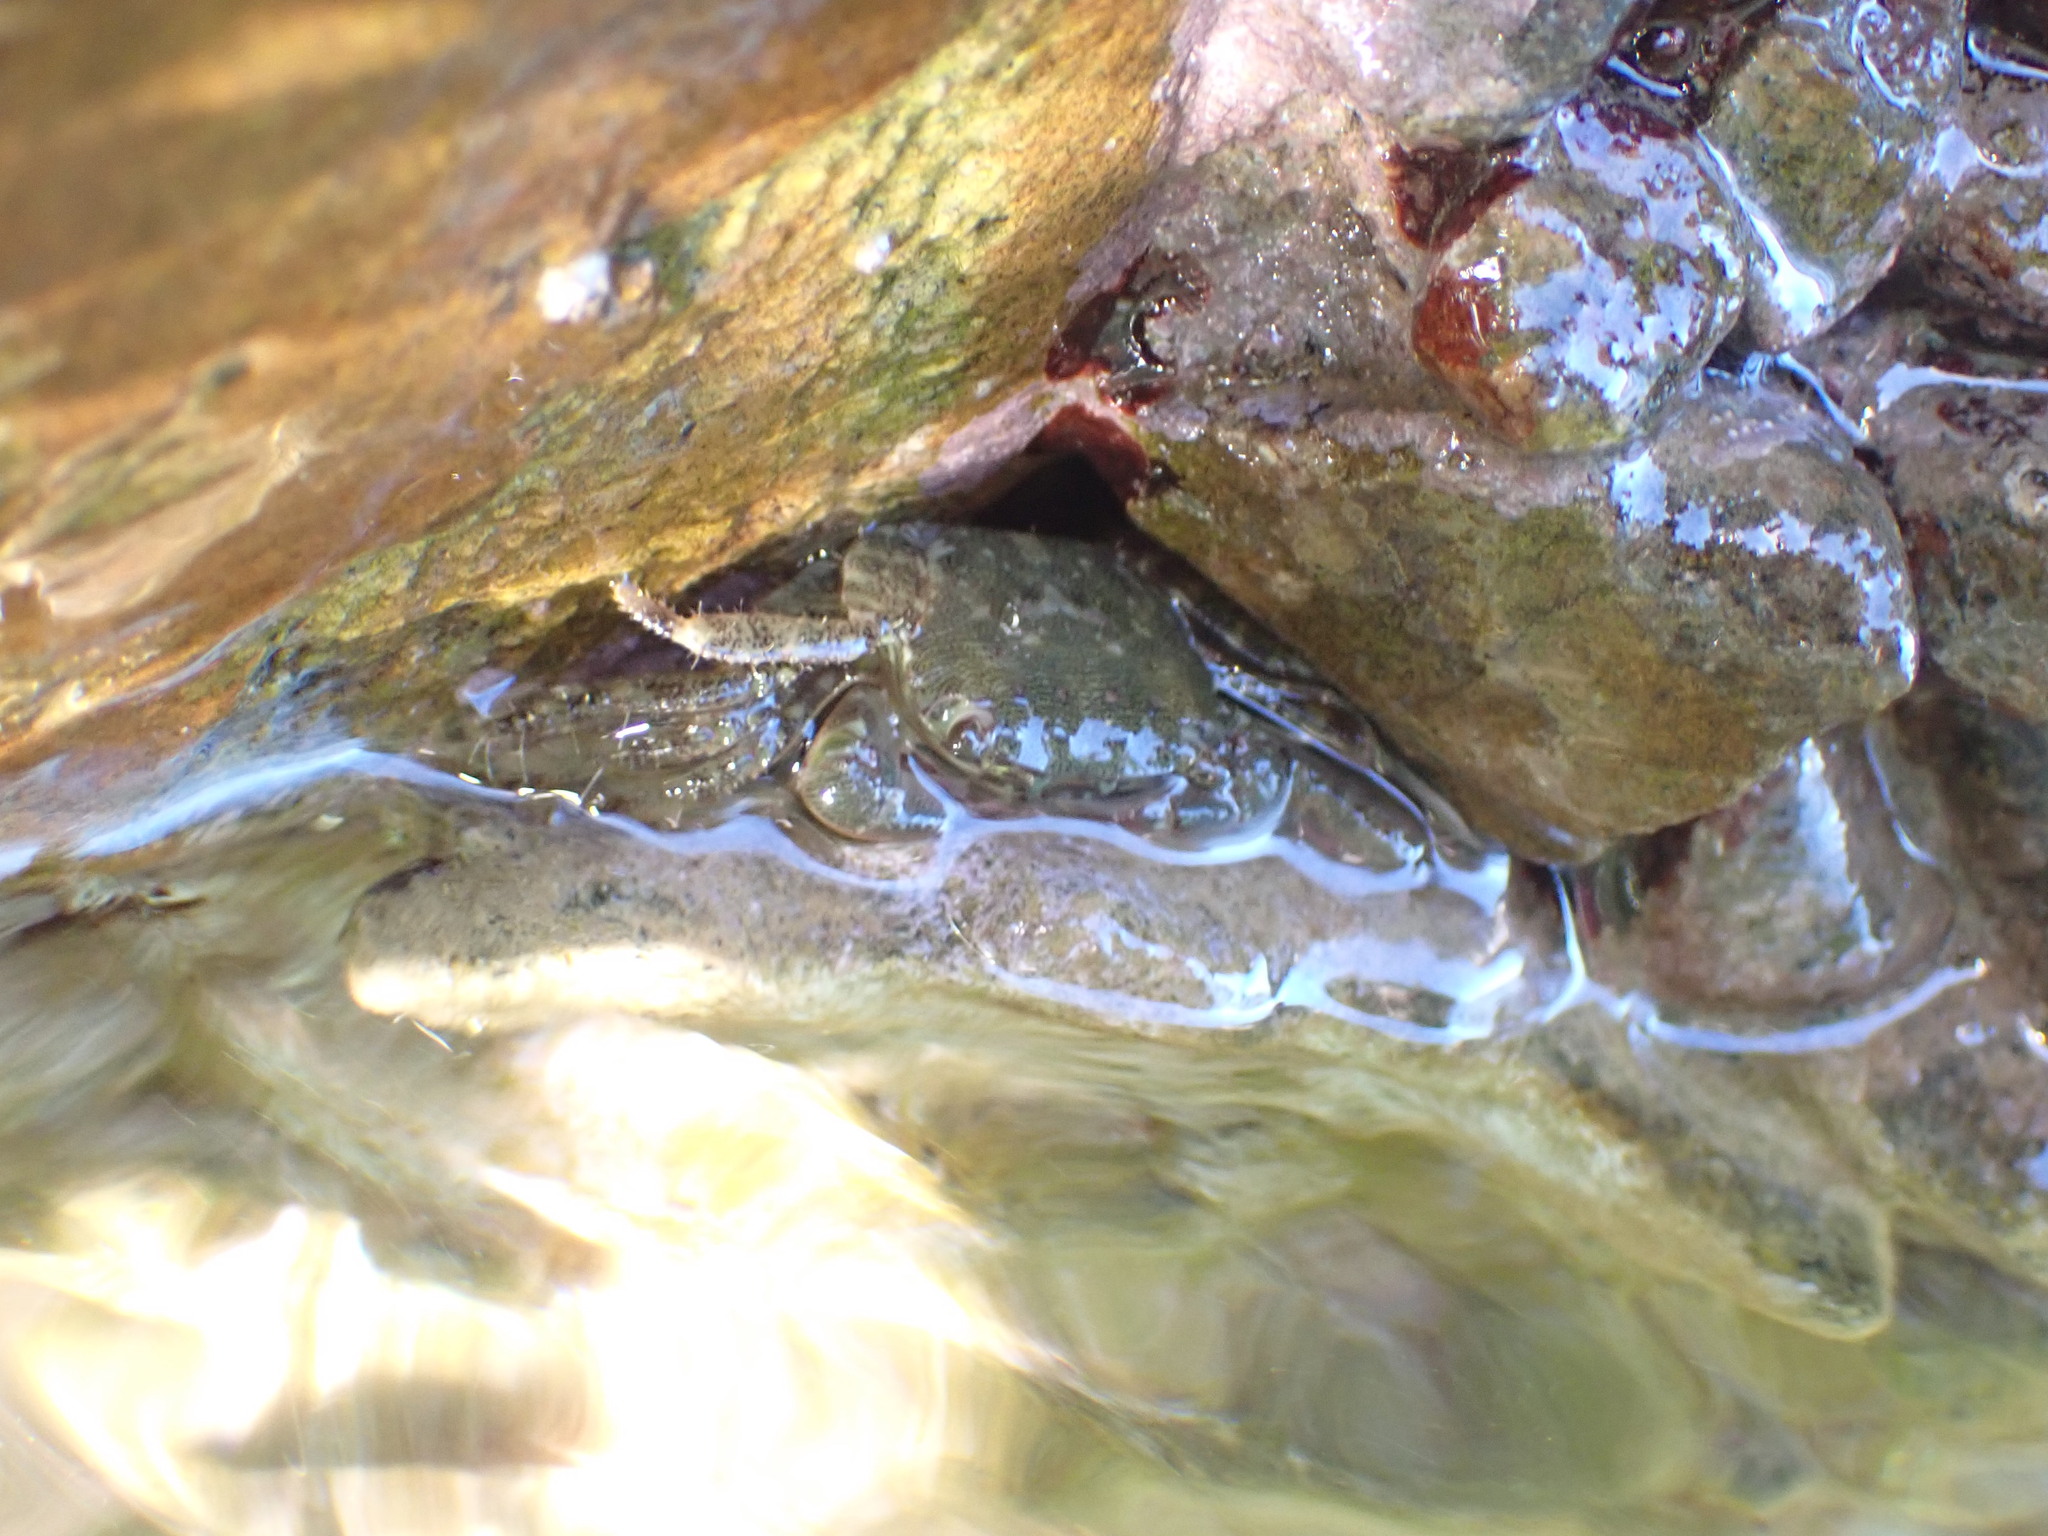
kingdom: Animalia
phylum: Arthropoda
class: Malacostraca
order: Decapoda
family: Grapsidae
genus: Pachygrapsus
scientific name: Pachygrapsus marmoratus
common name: Marbled rock crab
